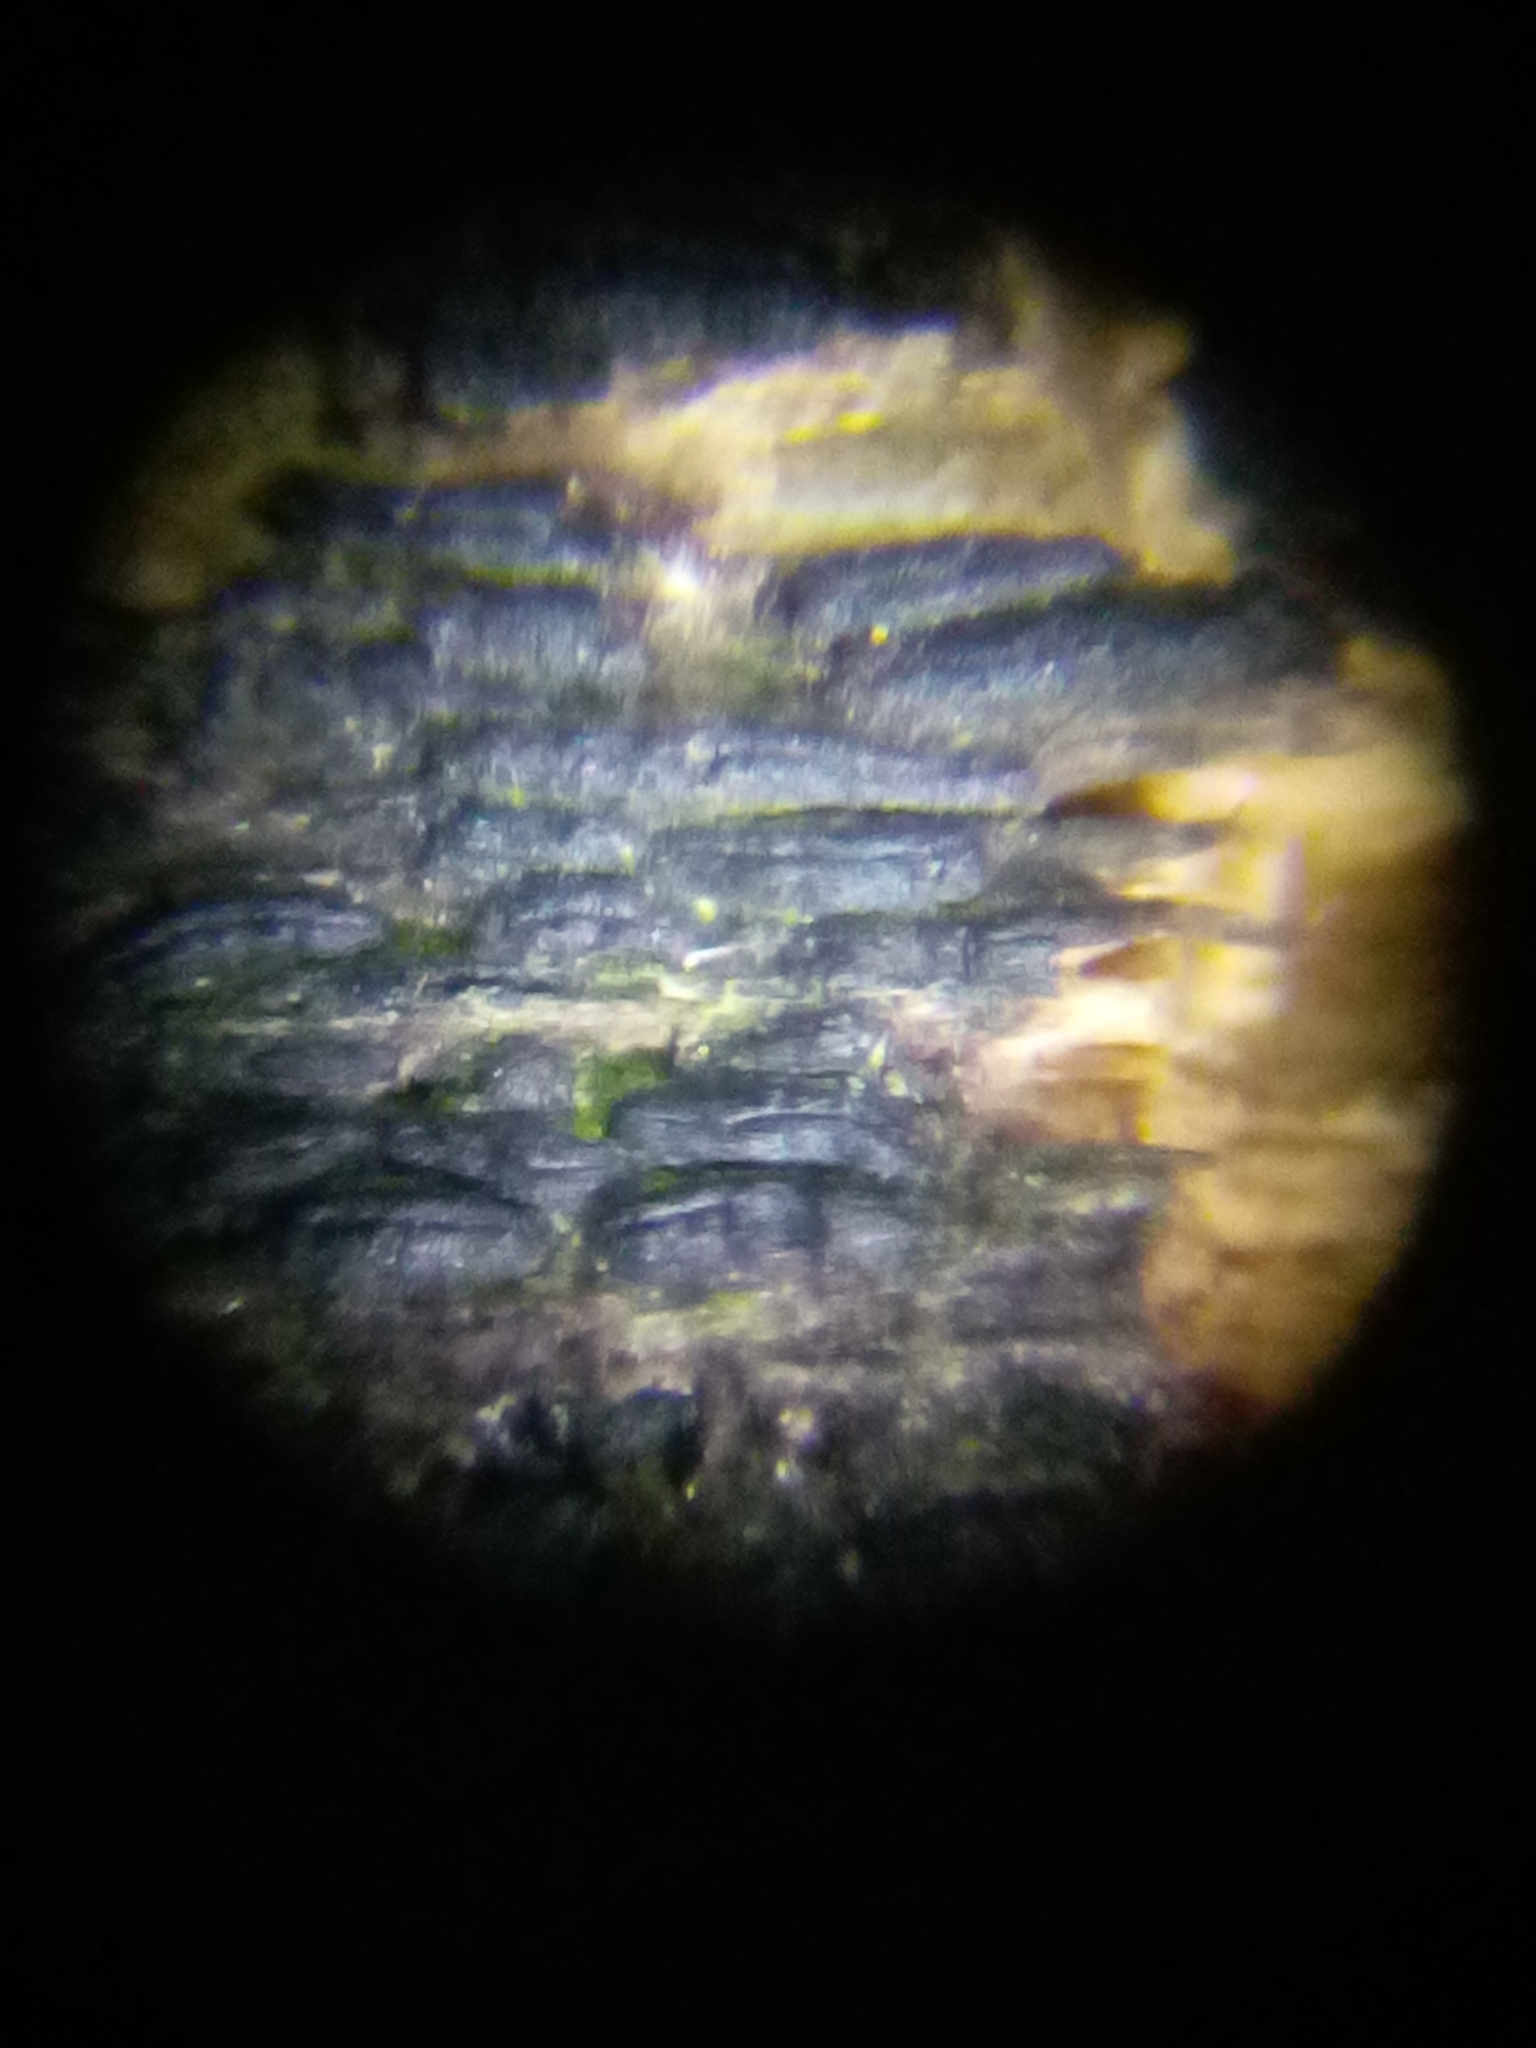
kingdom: Fungi
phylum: Ascomycota
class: Dothideomycetes
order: Hysteriales
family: Hysteriaceae
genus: Hysterobrevium
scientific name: Hysterobrevium mori
